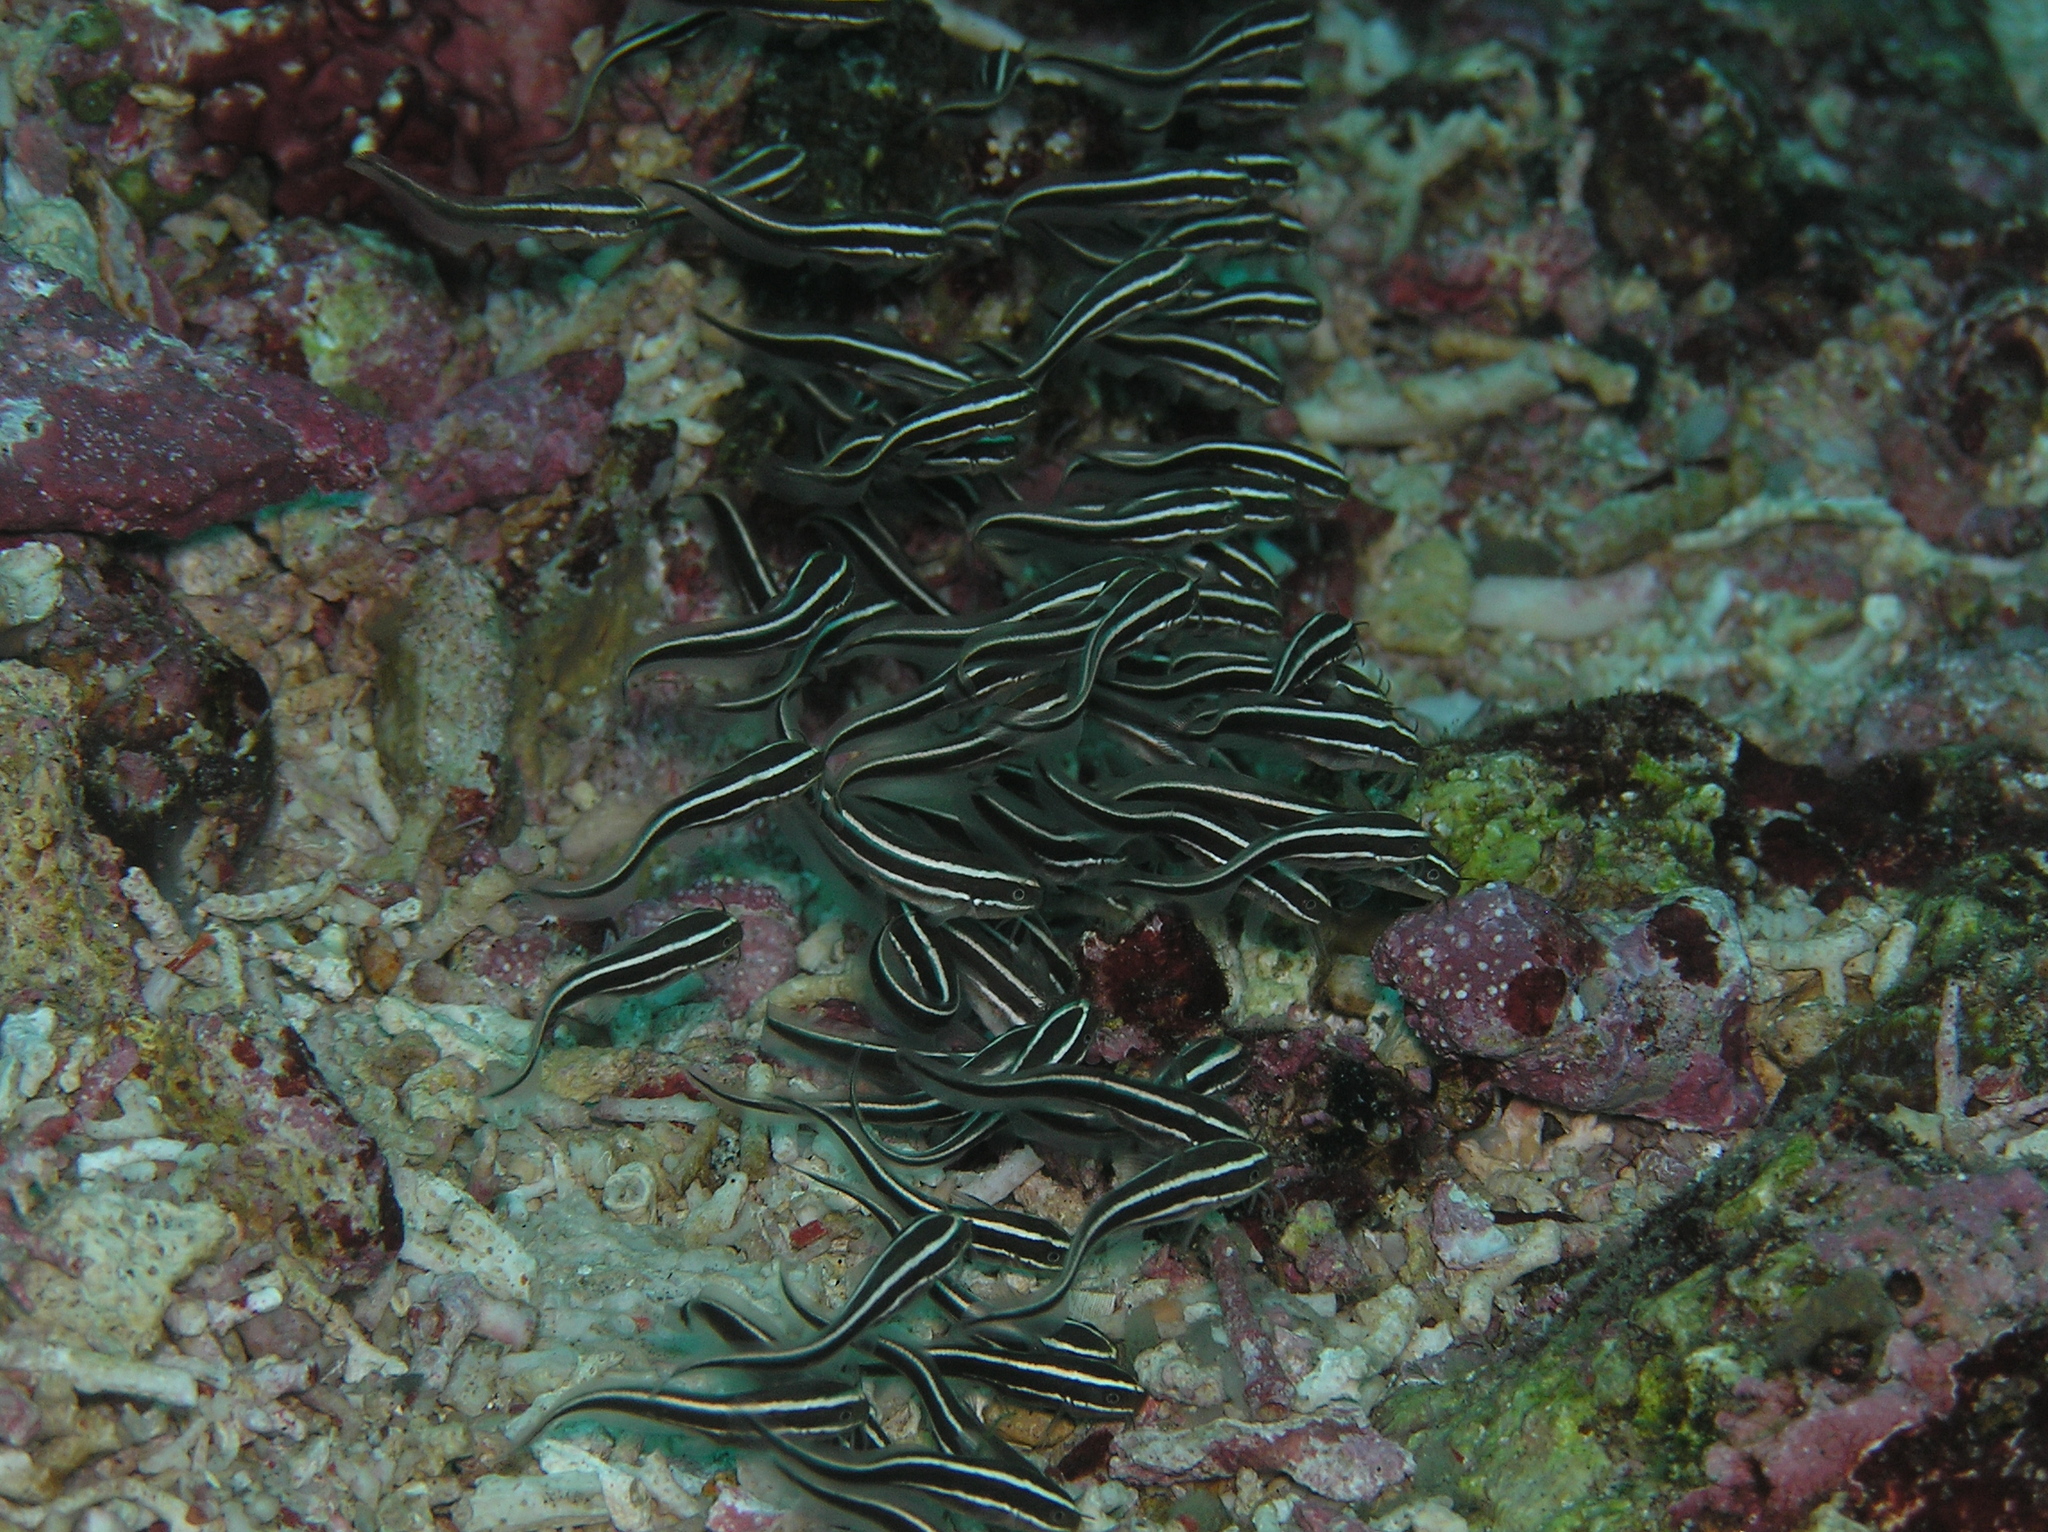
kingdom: Animalia
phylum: Chordata
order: Siluriformes
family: Plotosidae
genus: Plotosus
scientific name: Plotosus lineatus
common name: Striped eel catfish
